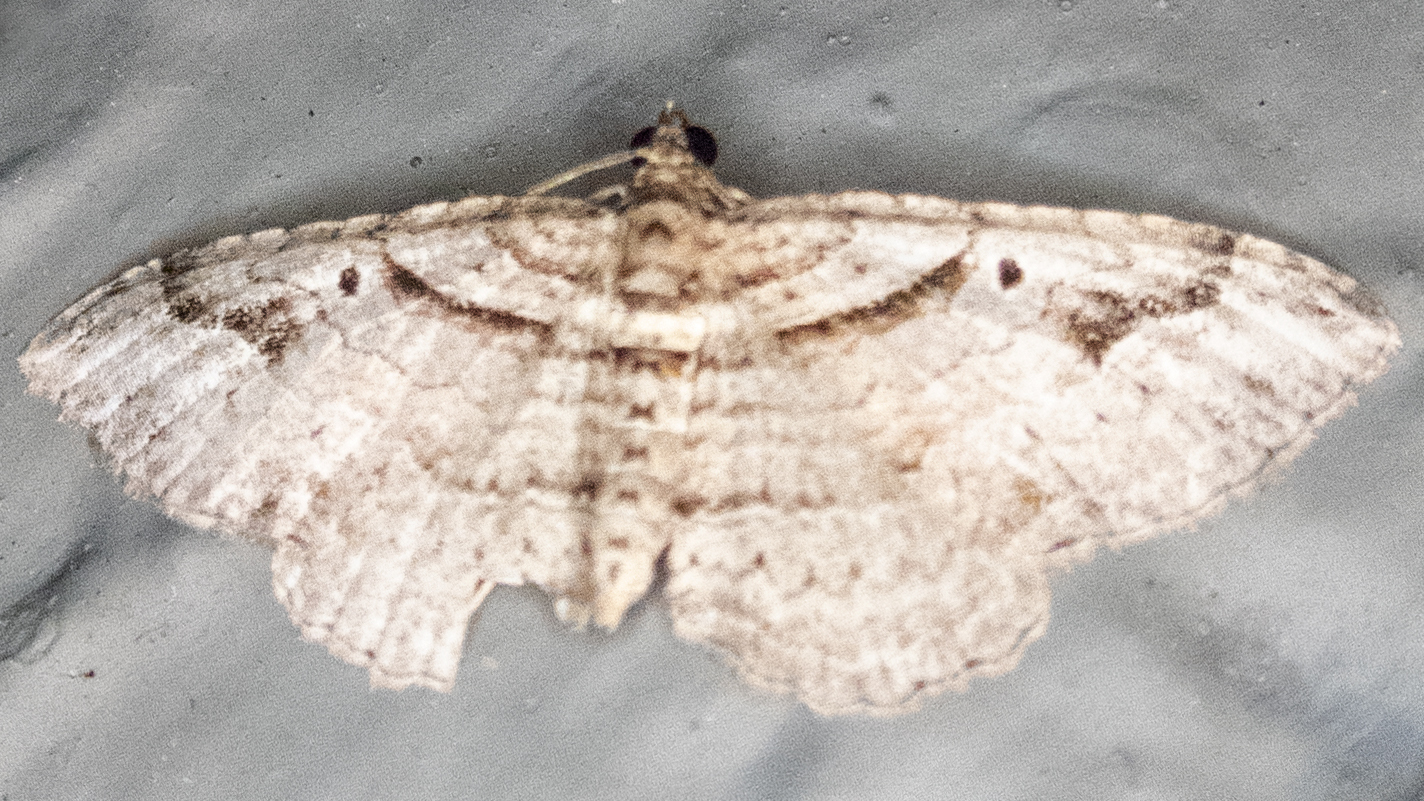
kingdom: Animalia
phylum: Arthropoda
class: Insecta
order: Lepidoptera
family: Geometridae
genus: Costaconvexa
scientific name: Costaconvexa centrostrigaria
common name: Bent-line carpet
